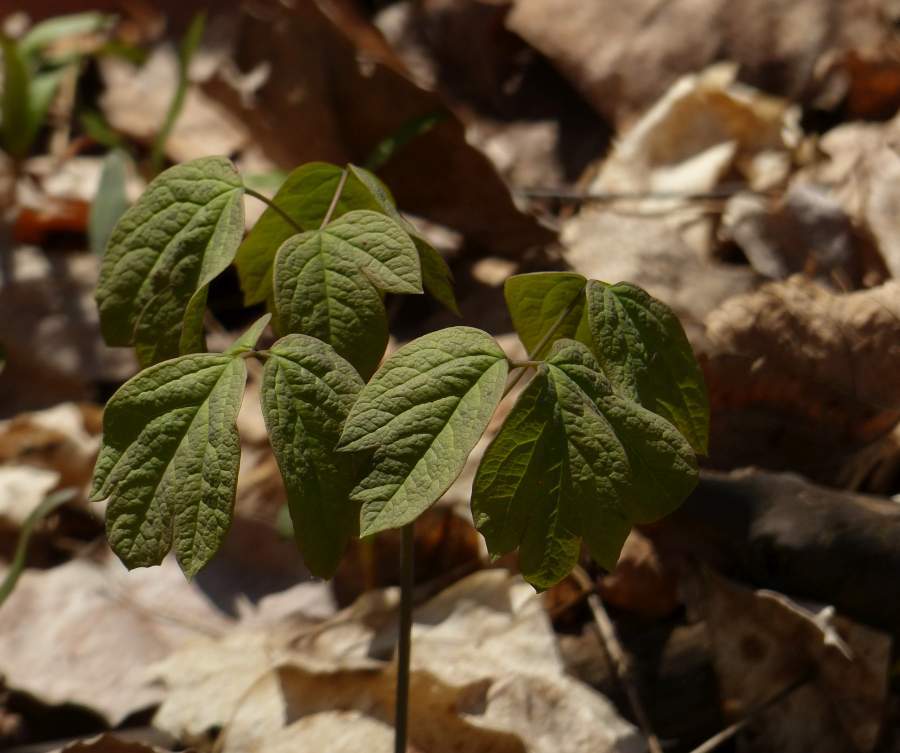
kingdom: Plantae
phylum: Tracheophyta
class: Magnoliopsida
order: Ranunculales
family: Berberidaceae
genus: Caulophyllum
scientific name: Caulophyllum giganteum
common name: Blue cohosh
